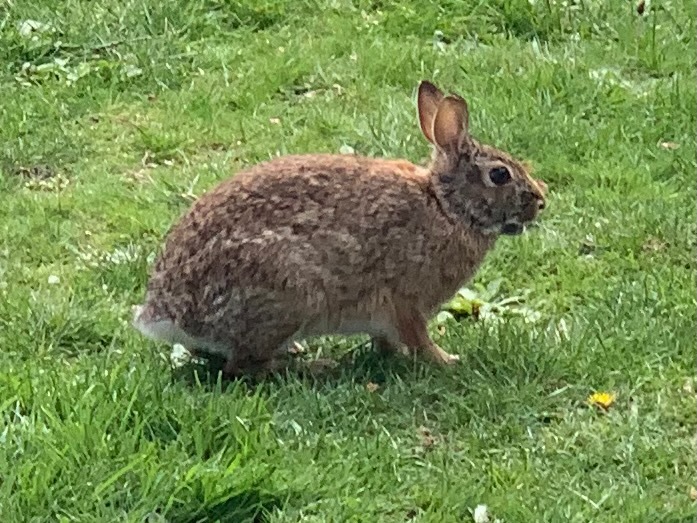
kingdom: Animalia
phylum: Chordata
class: Mammalia
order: Lagomorpha
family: Leporidae
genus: Sylvilagus
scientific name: Sylvilagus floridanus
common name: Eastern cottontail
